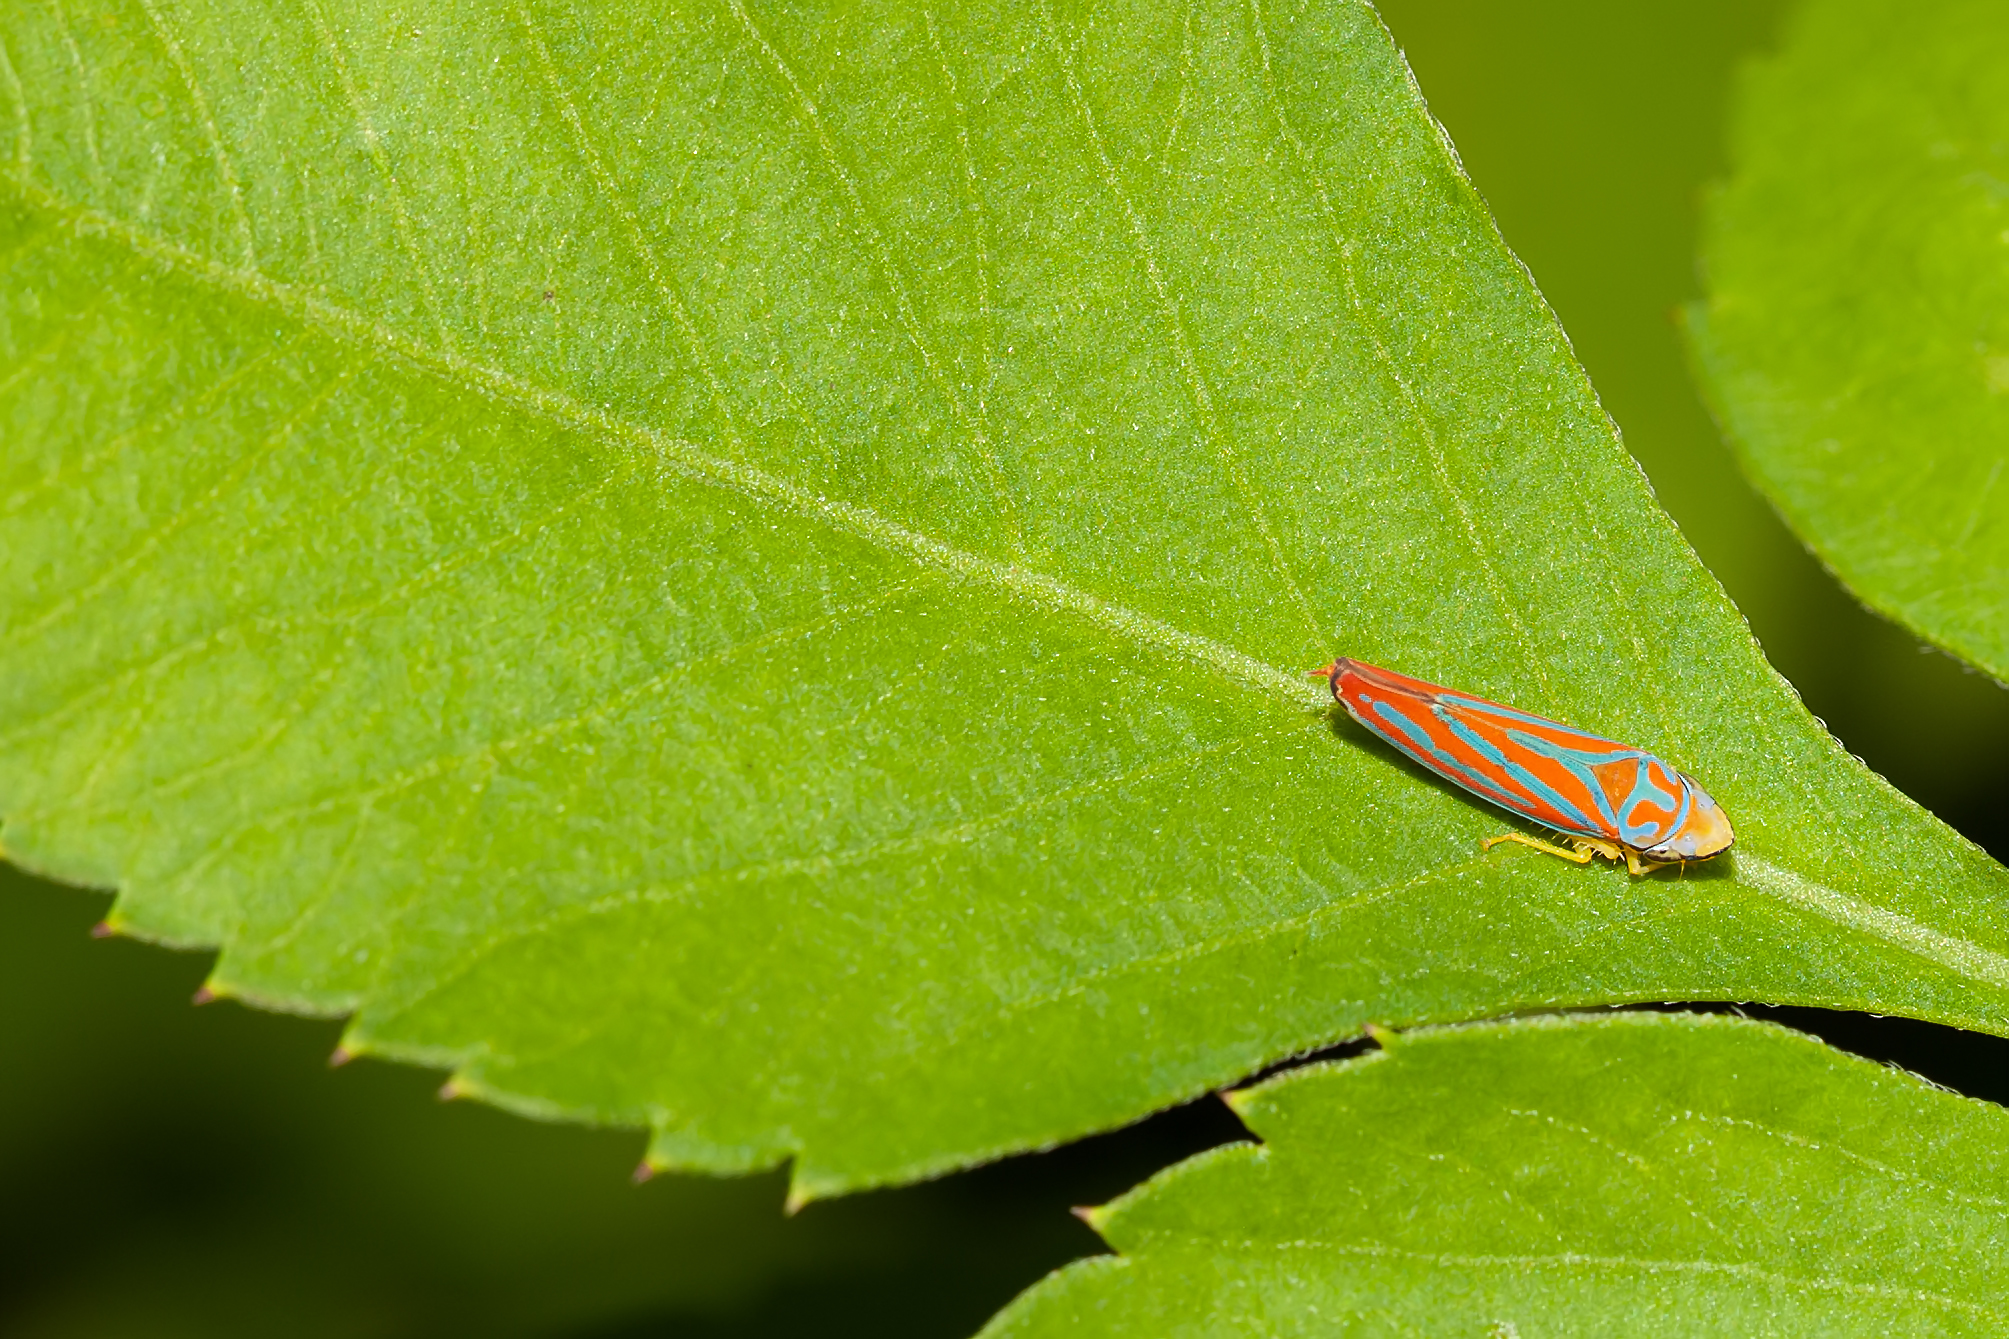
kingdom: Animalia
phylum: Arthropoda
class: Insecta
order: Hemiptera
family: Cicadellidae
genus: Graphocephala
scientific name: Graphocephala coccinea
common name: Candy-striped leafhopper
